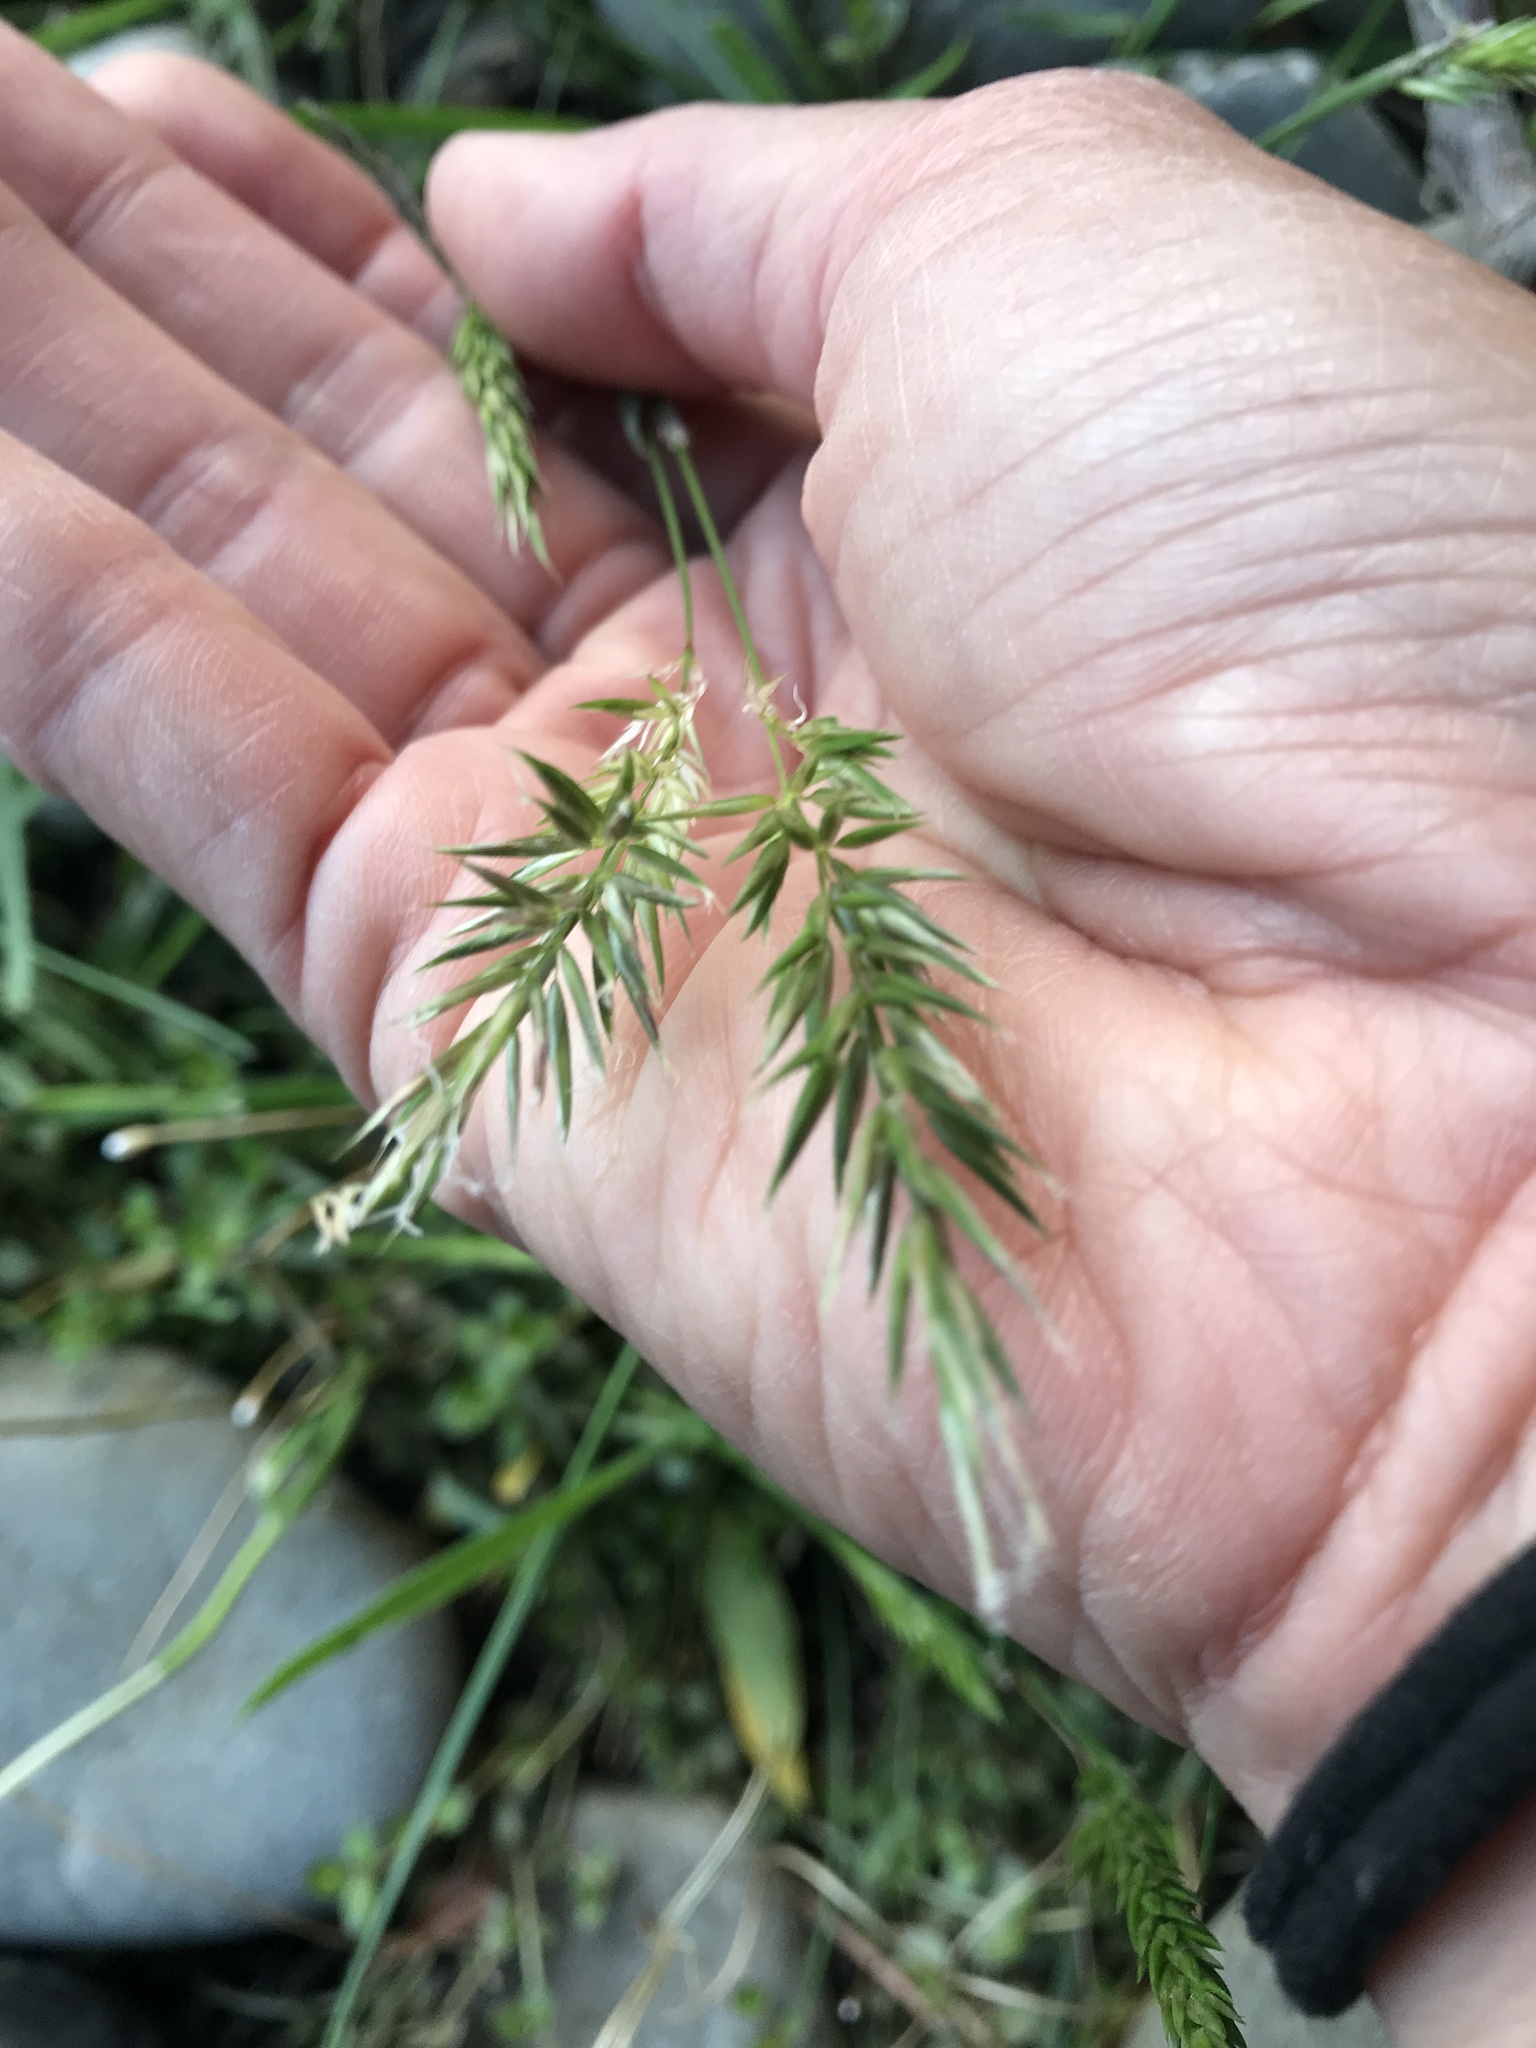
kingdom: Plantae
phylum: Tracheophyta
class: Liliopsida
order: Poales
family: Poaceae
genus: Anthoxanthum
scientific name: Anthoxanthum odoratum
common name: Sweet vernalgrass
